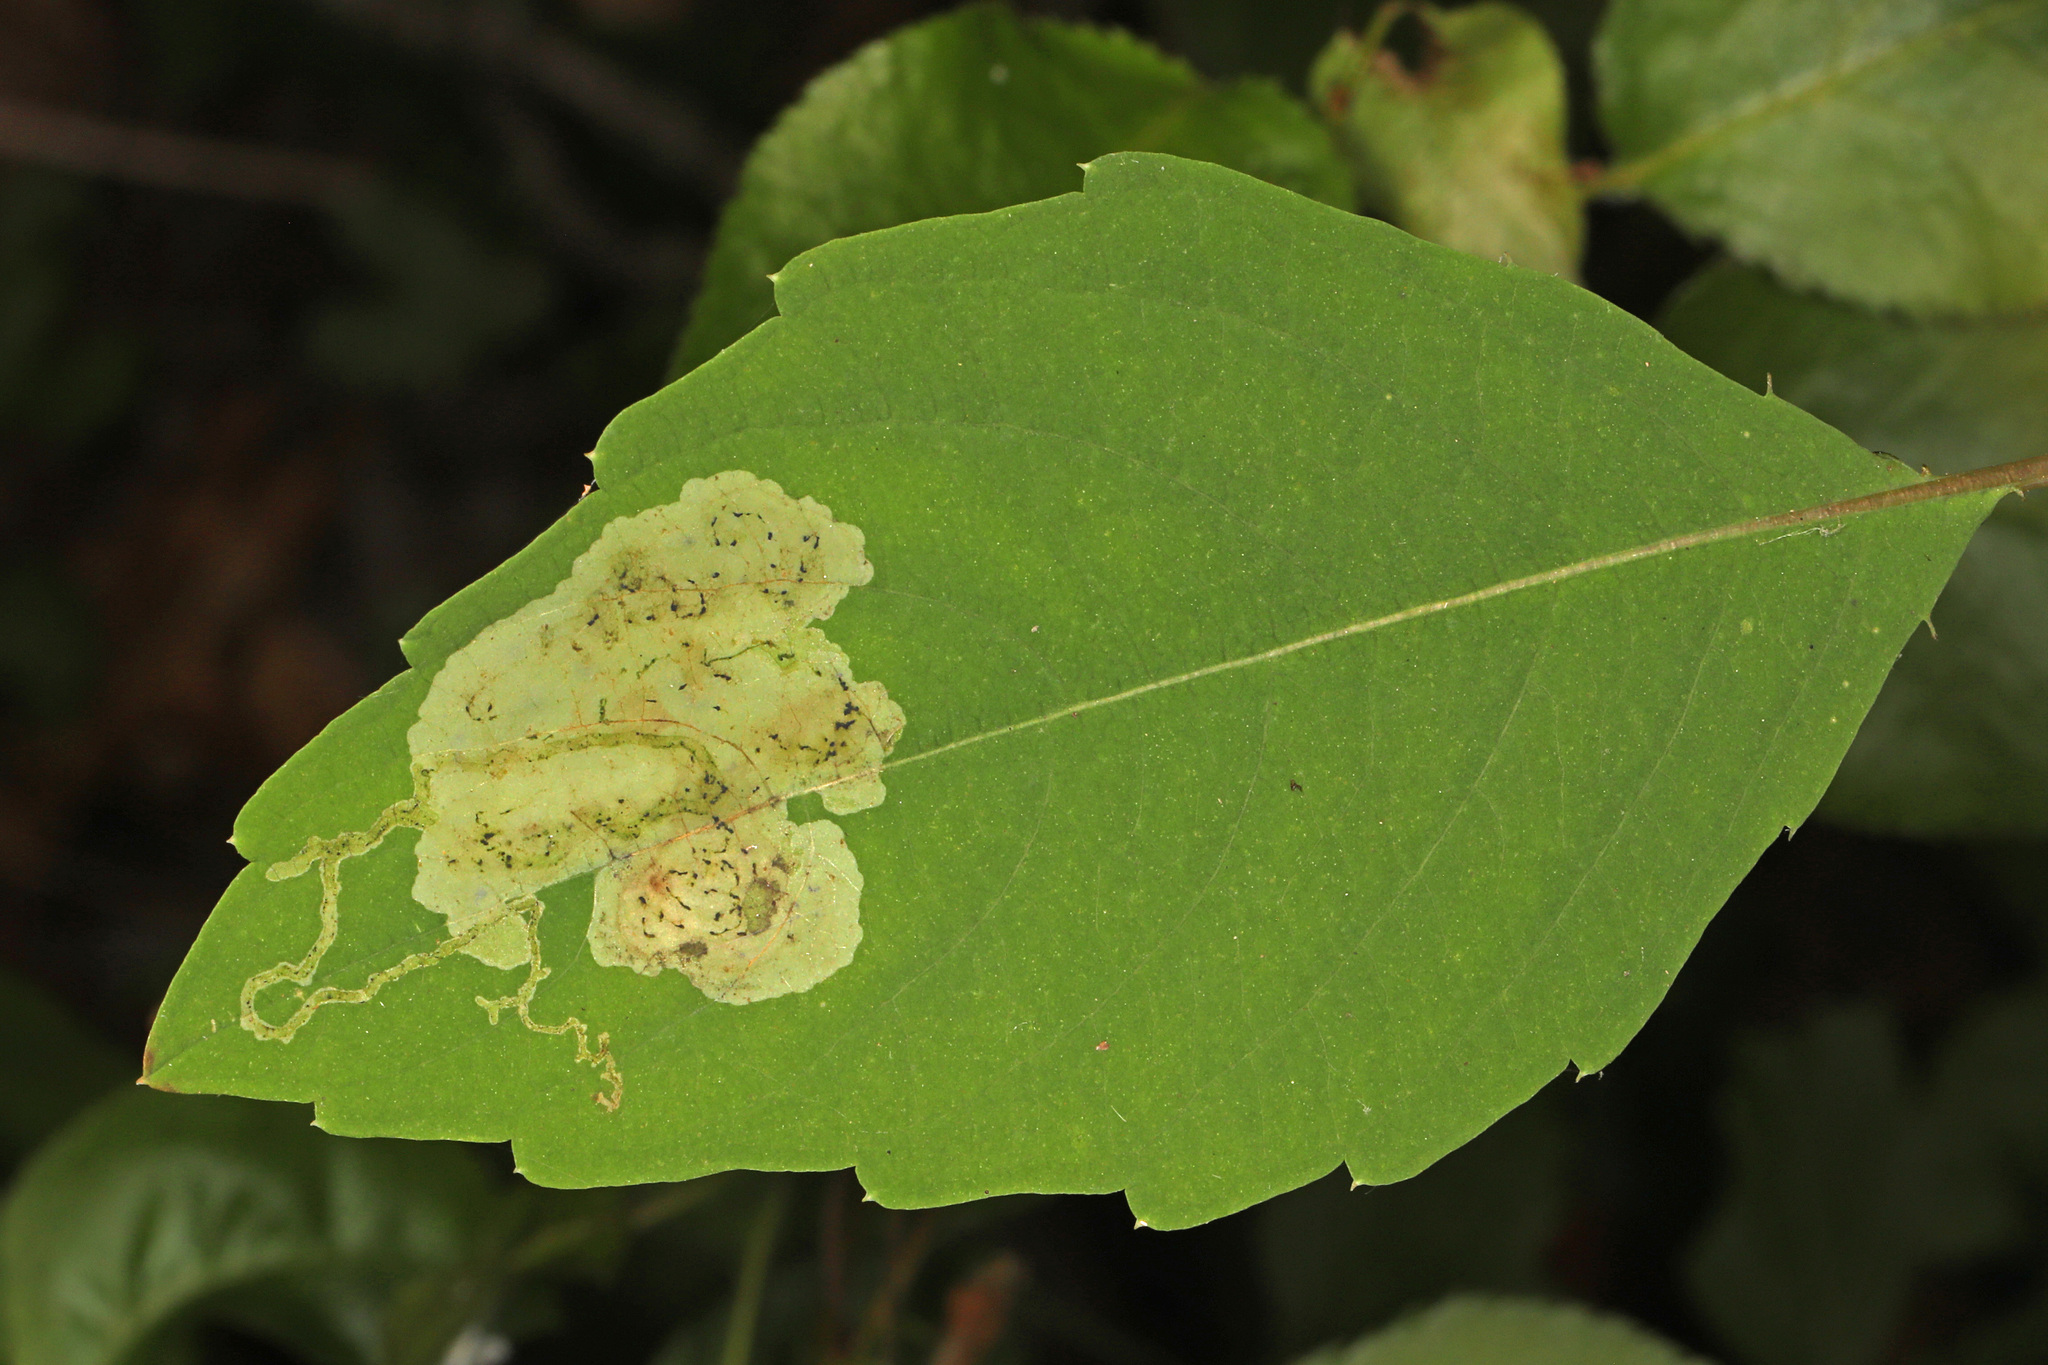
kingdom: Animalia
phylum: Arthropoda
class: Insecta
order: Diptera
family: Agromyzidae
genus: Phytoliriomyza
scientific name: Phytoliriomyza melampyga
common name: Jewelweed leaf-miner fly
